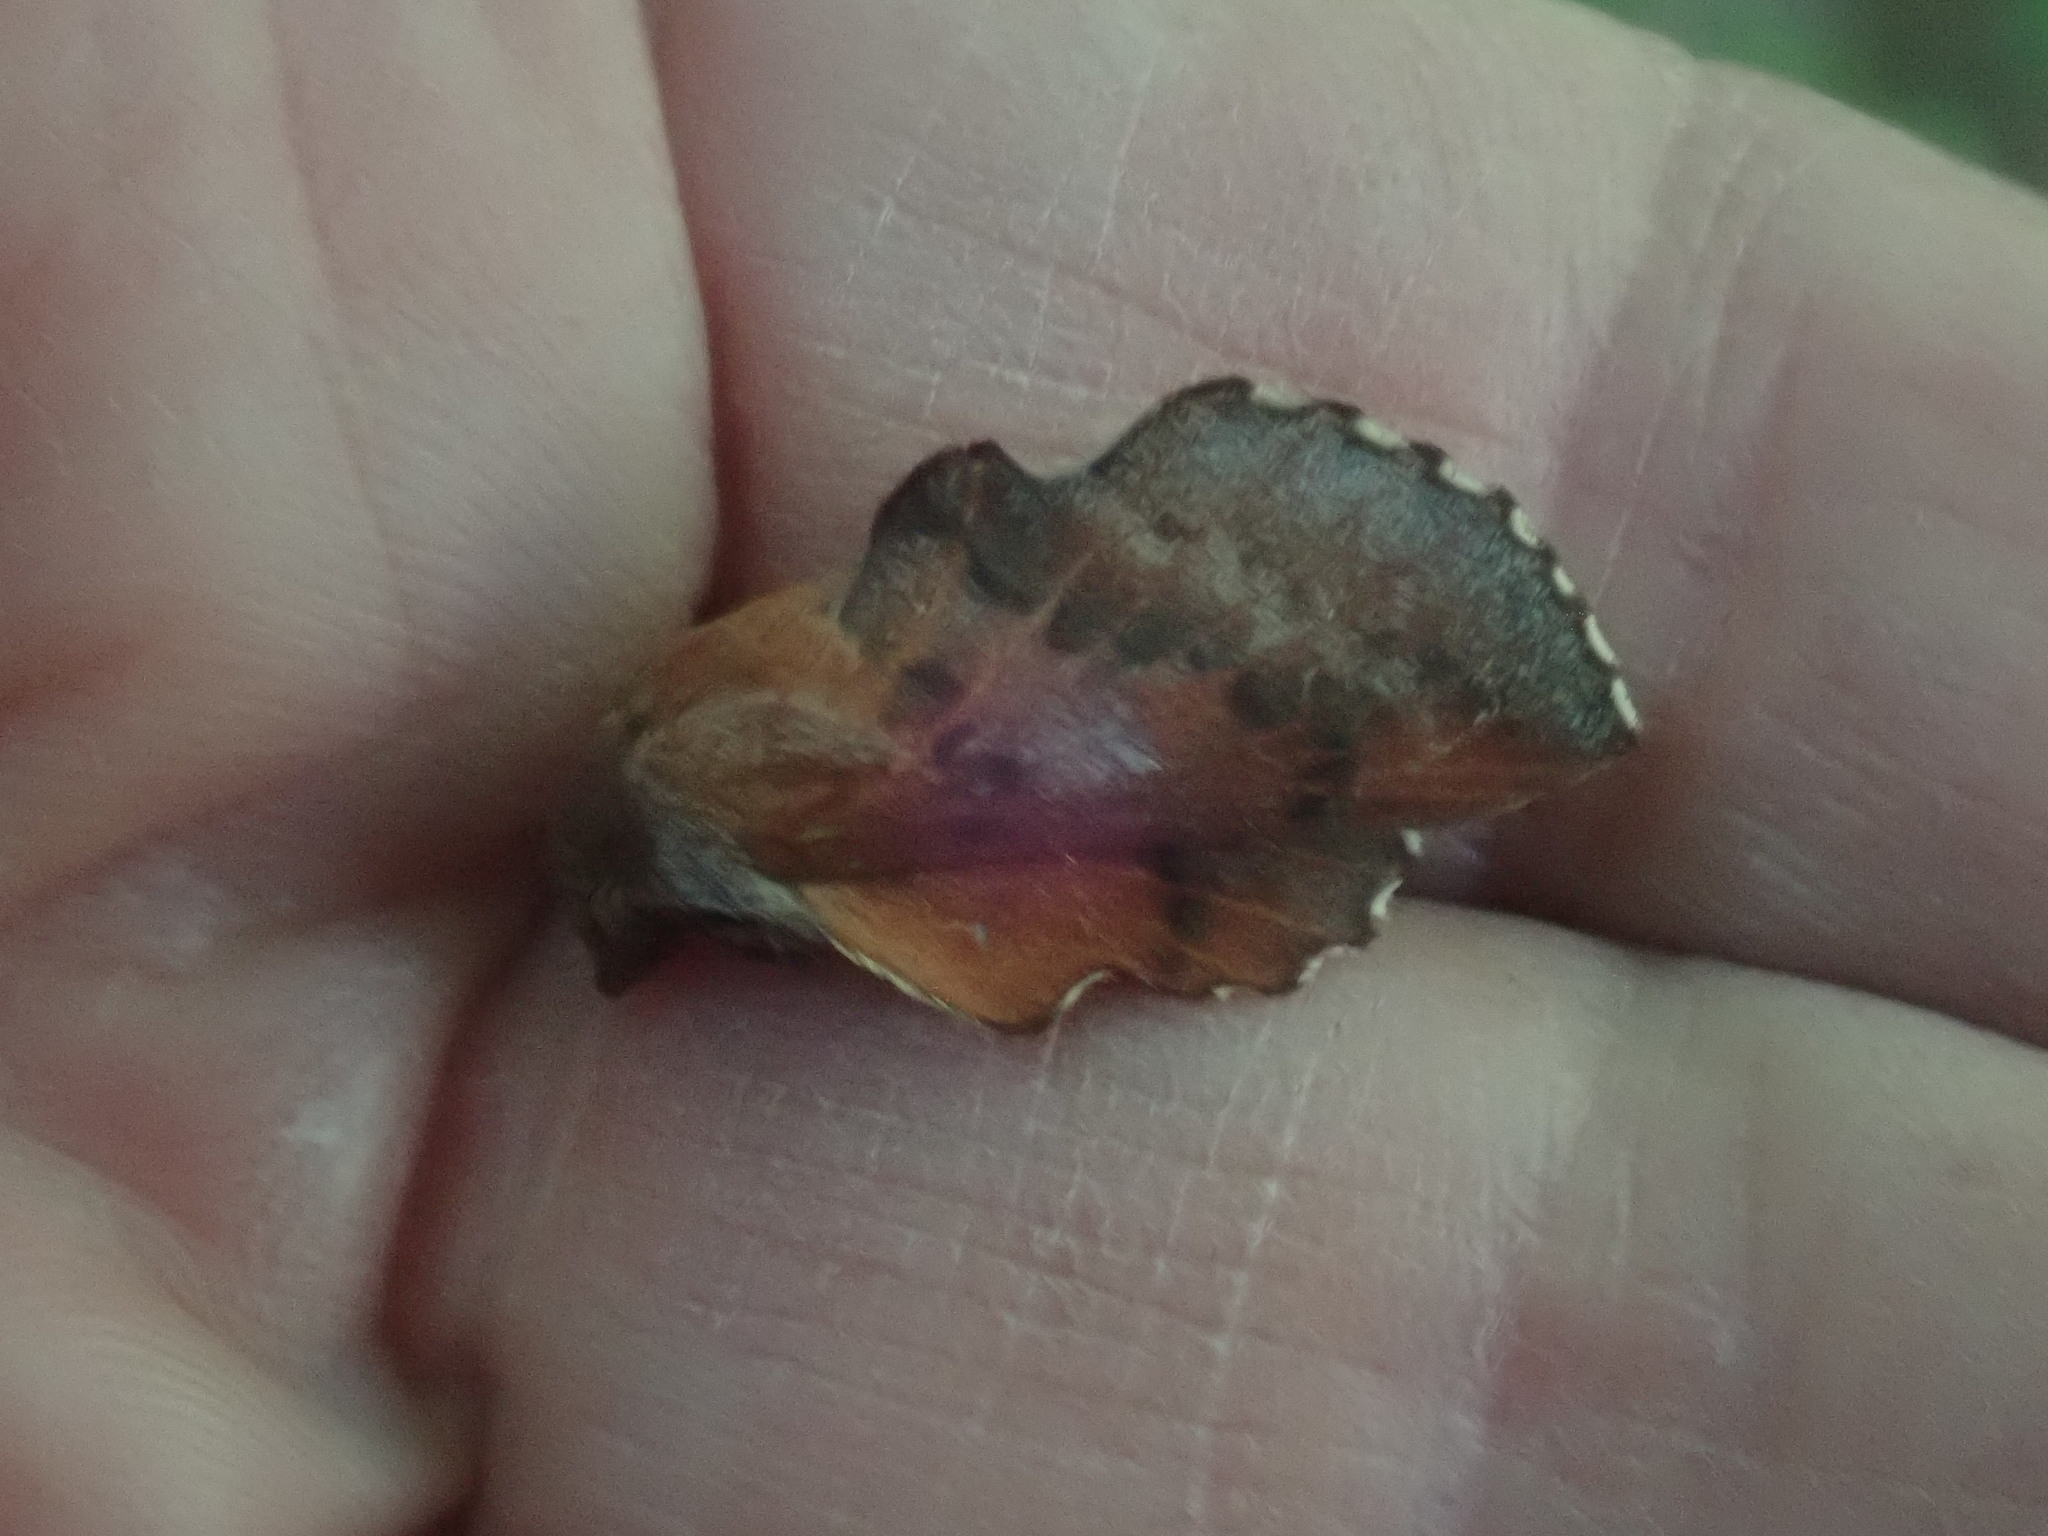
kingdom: Animalia
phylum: Arthropoda
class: Insecta
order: Lepidoptera
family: Lasiocampidae
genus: Phyllodesma
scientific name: Phyllodesma americana
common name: American lappet moth
